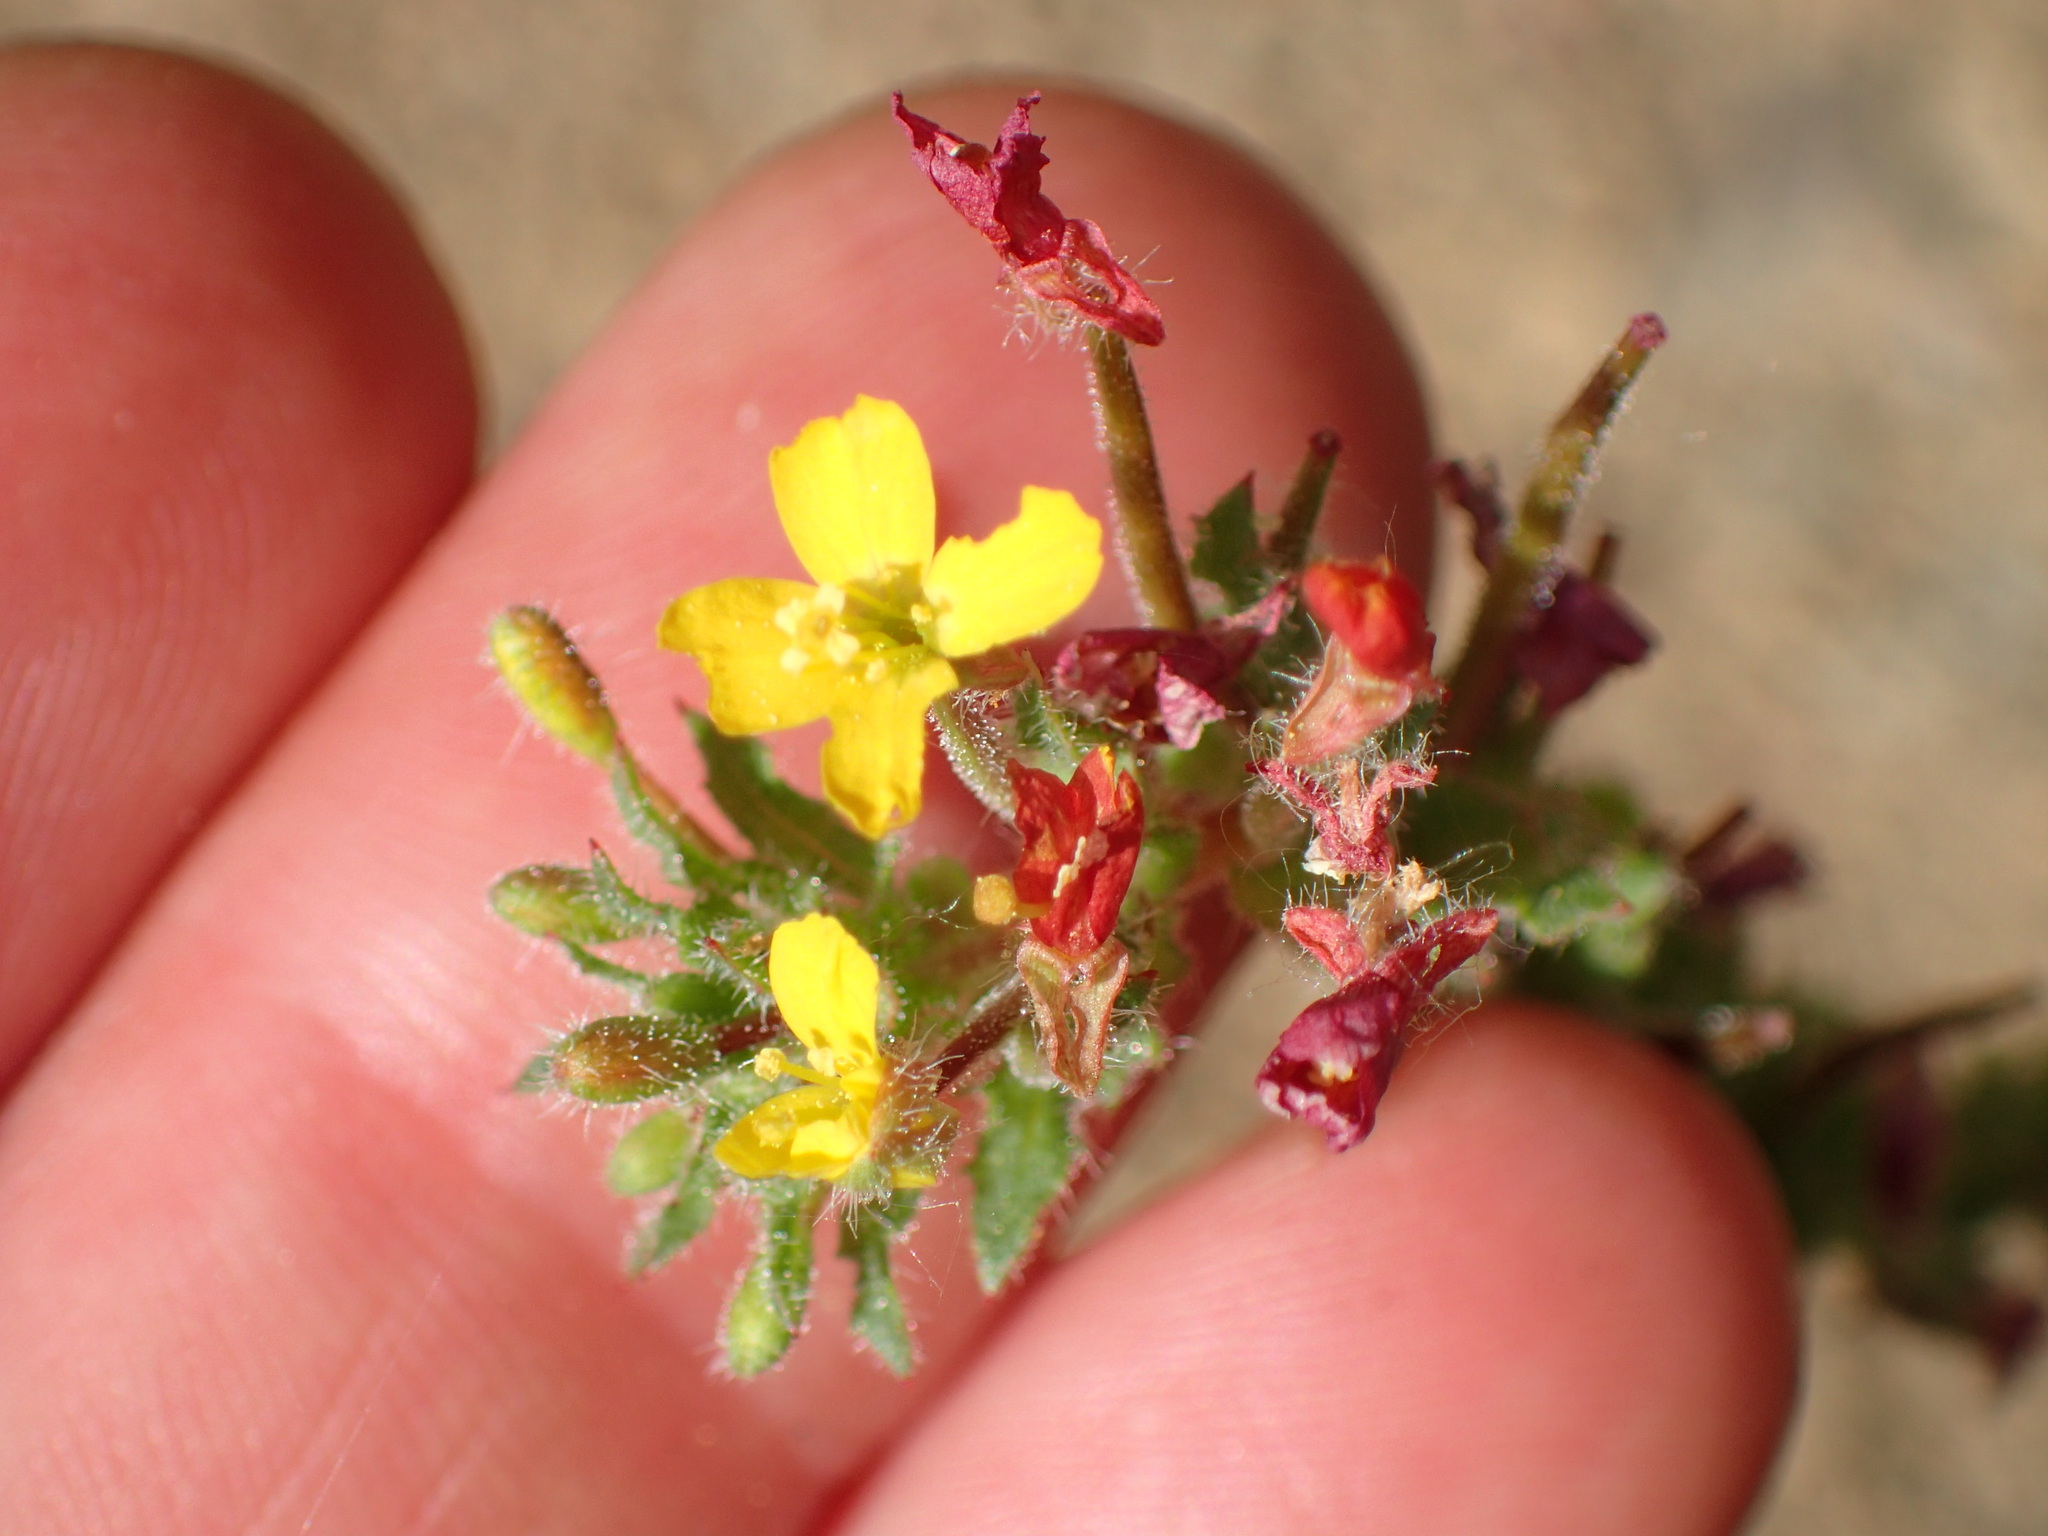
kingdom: Plantae
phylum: Tracheophyta
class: Magnoliopsida
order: Myrtales
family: Onagraceae
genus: Camissoniopsis
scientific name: Camissoniopsis hirtella
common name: Santa cruz island suncup
